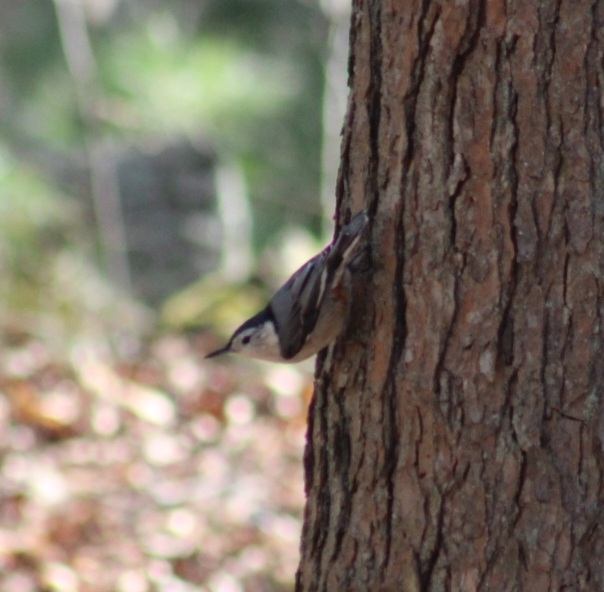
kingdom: Animalia
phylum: Chordata
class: Aves
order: Passeriformes
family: Sittidae
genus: Sitta
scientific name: Sitta carolinensis
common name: White-breasted nuthatch
